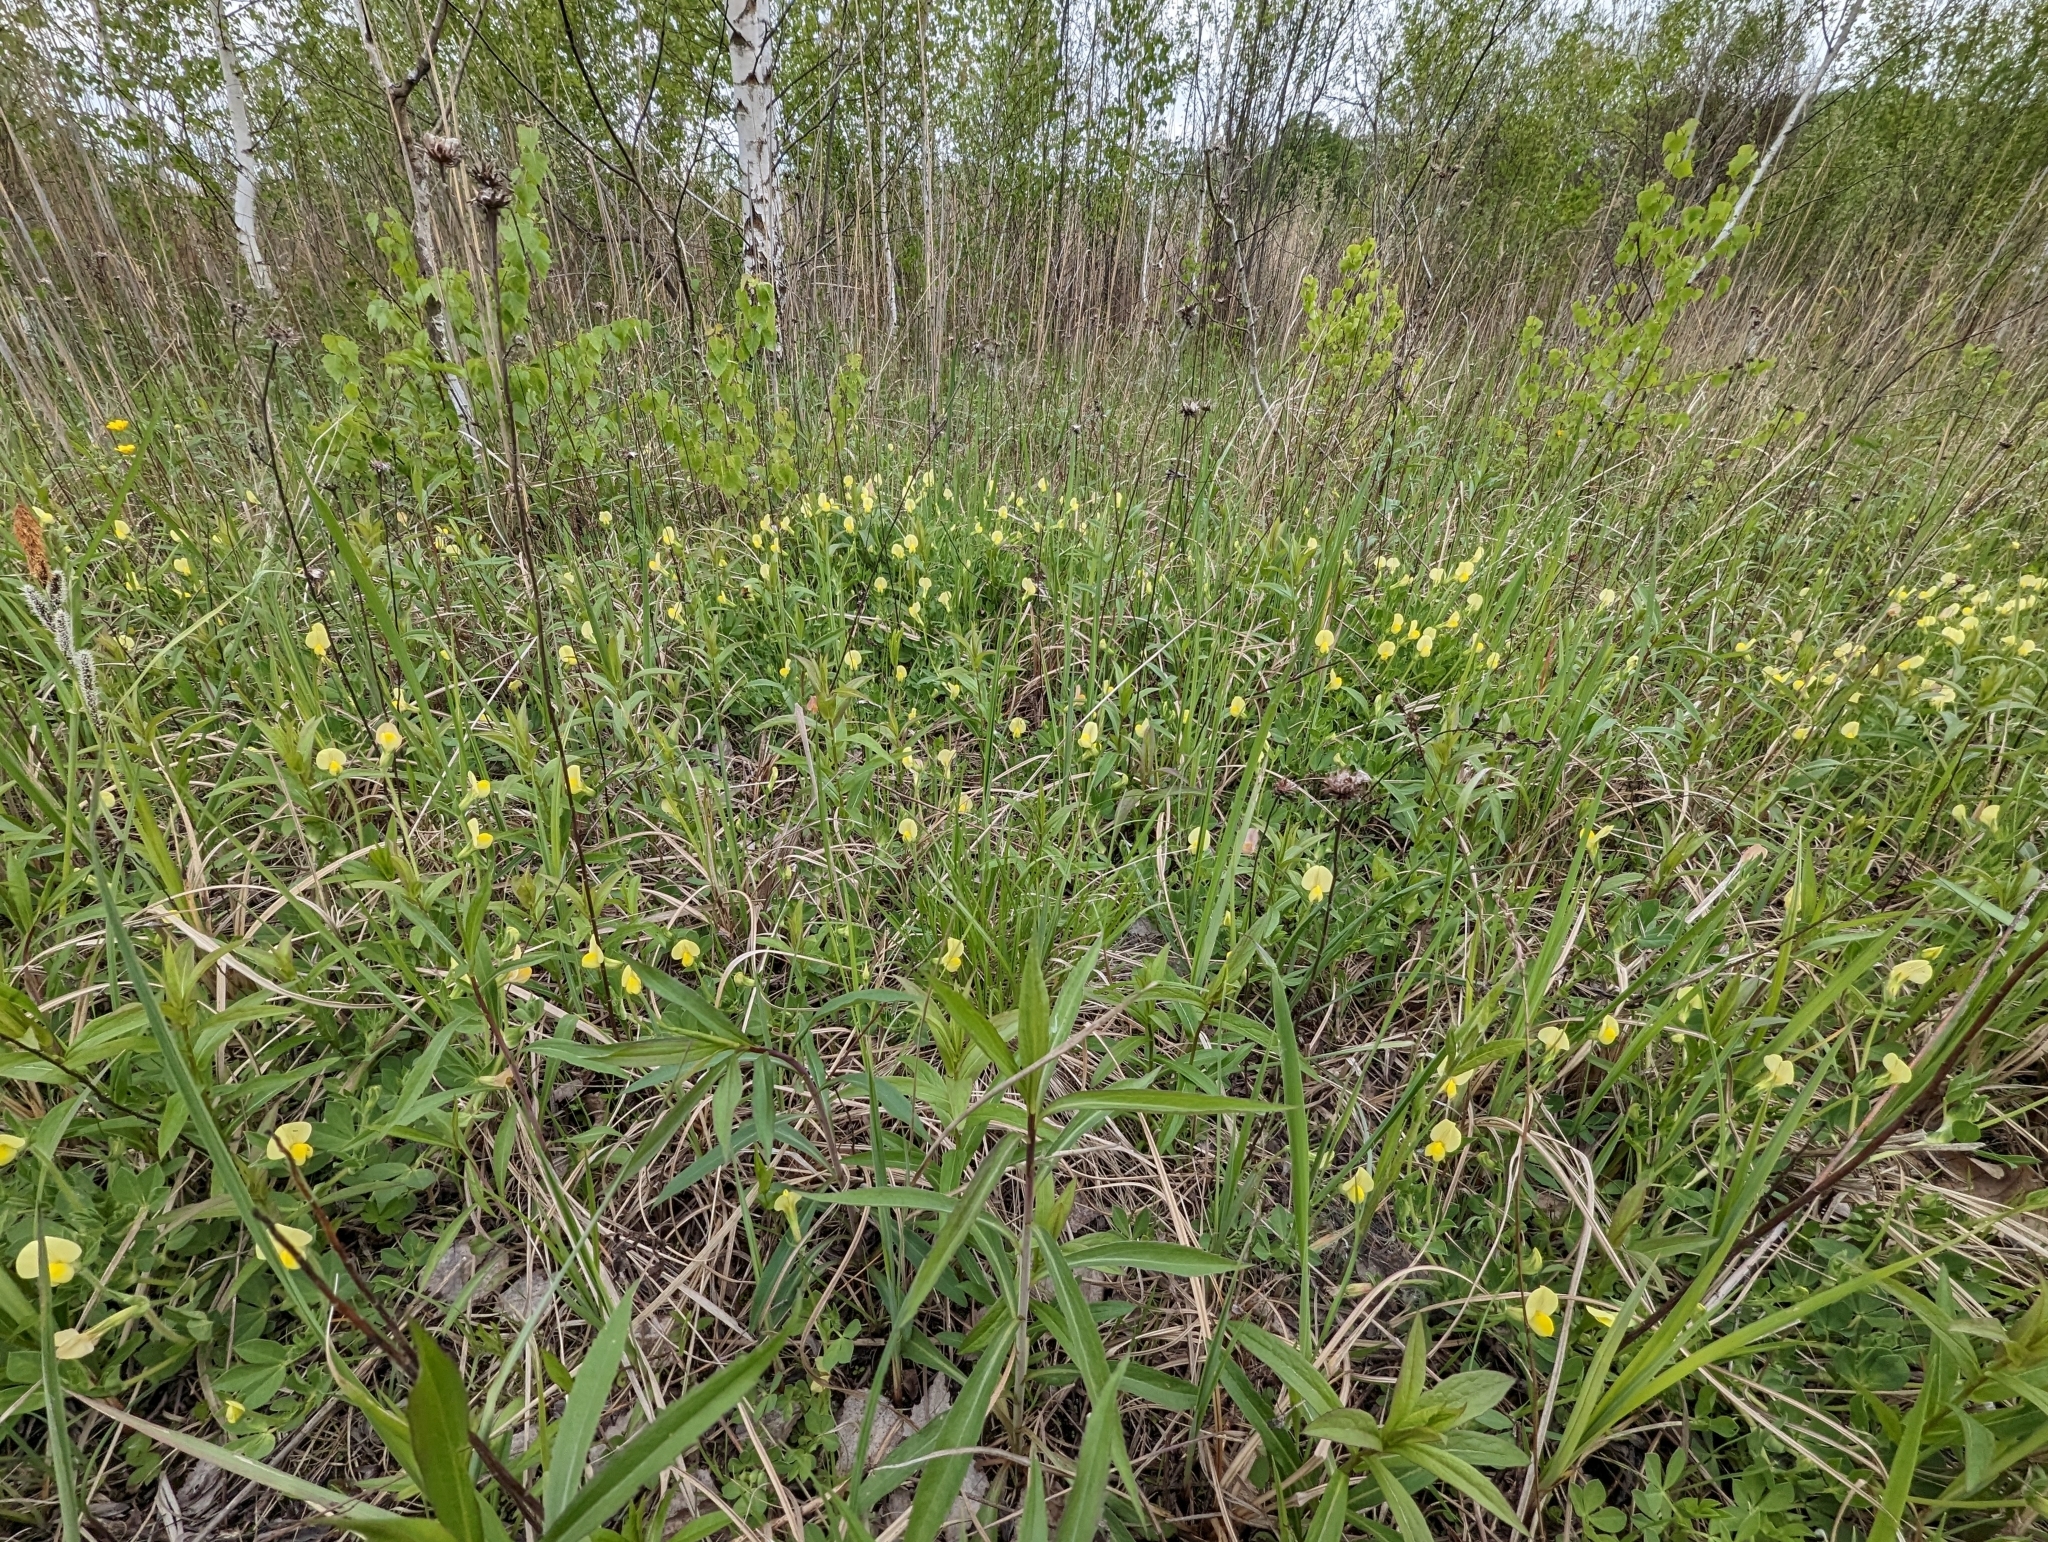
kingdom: Plantae
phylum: Tracheophyta
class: Magnoliopsida
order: Fabales
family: Fabaceae
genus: Lotus
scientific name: Lotus maritimus
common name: Dragon's-teeth
